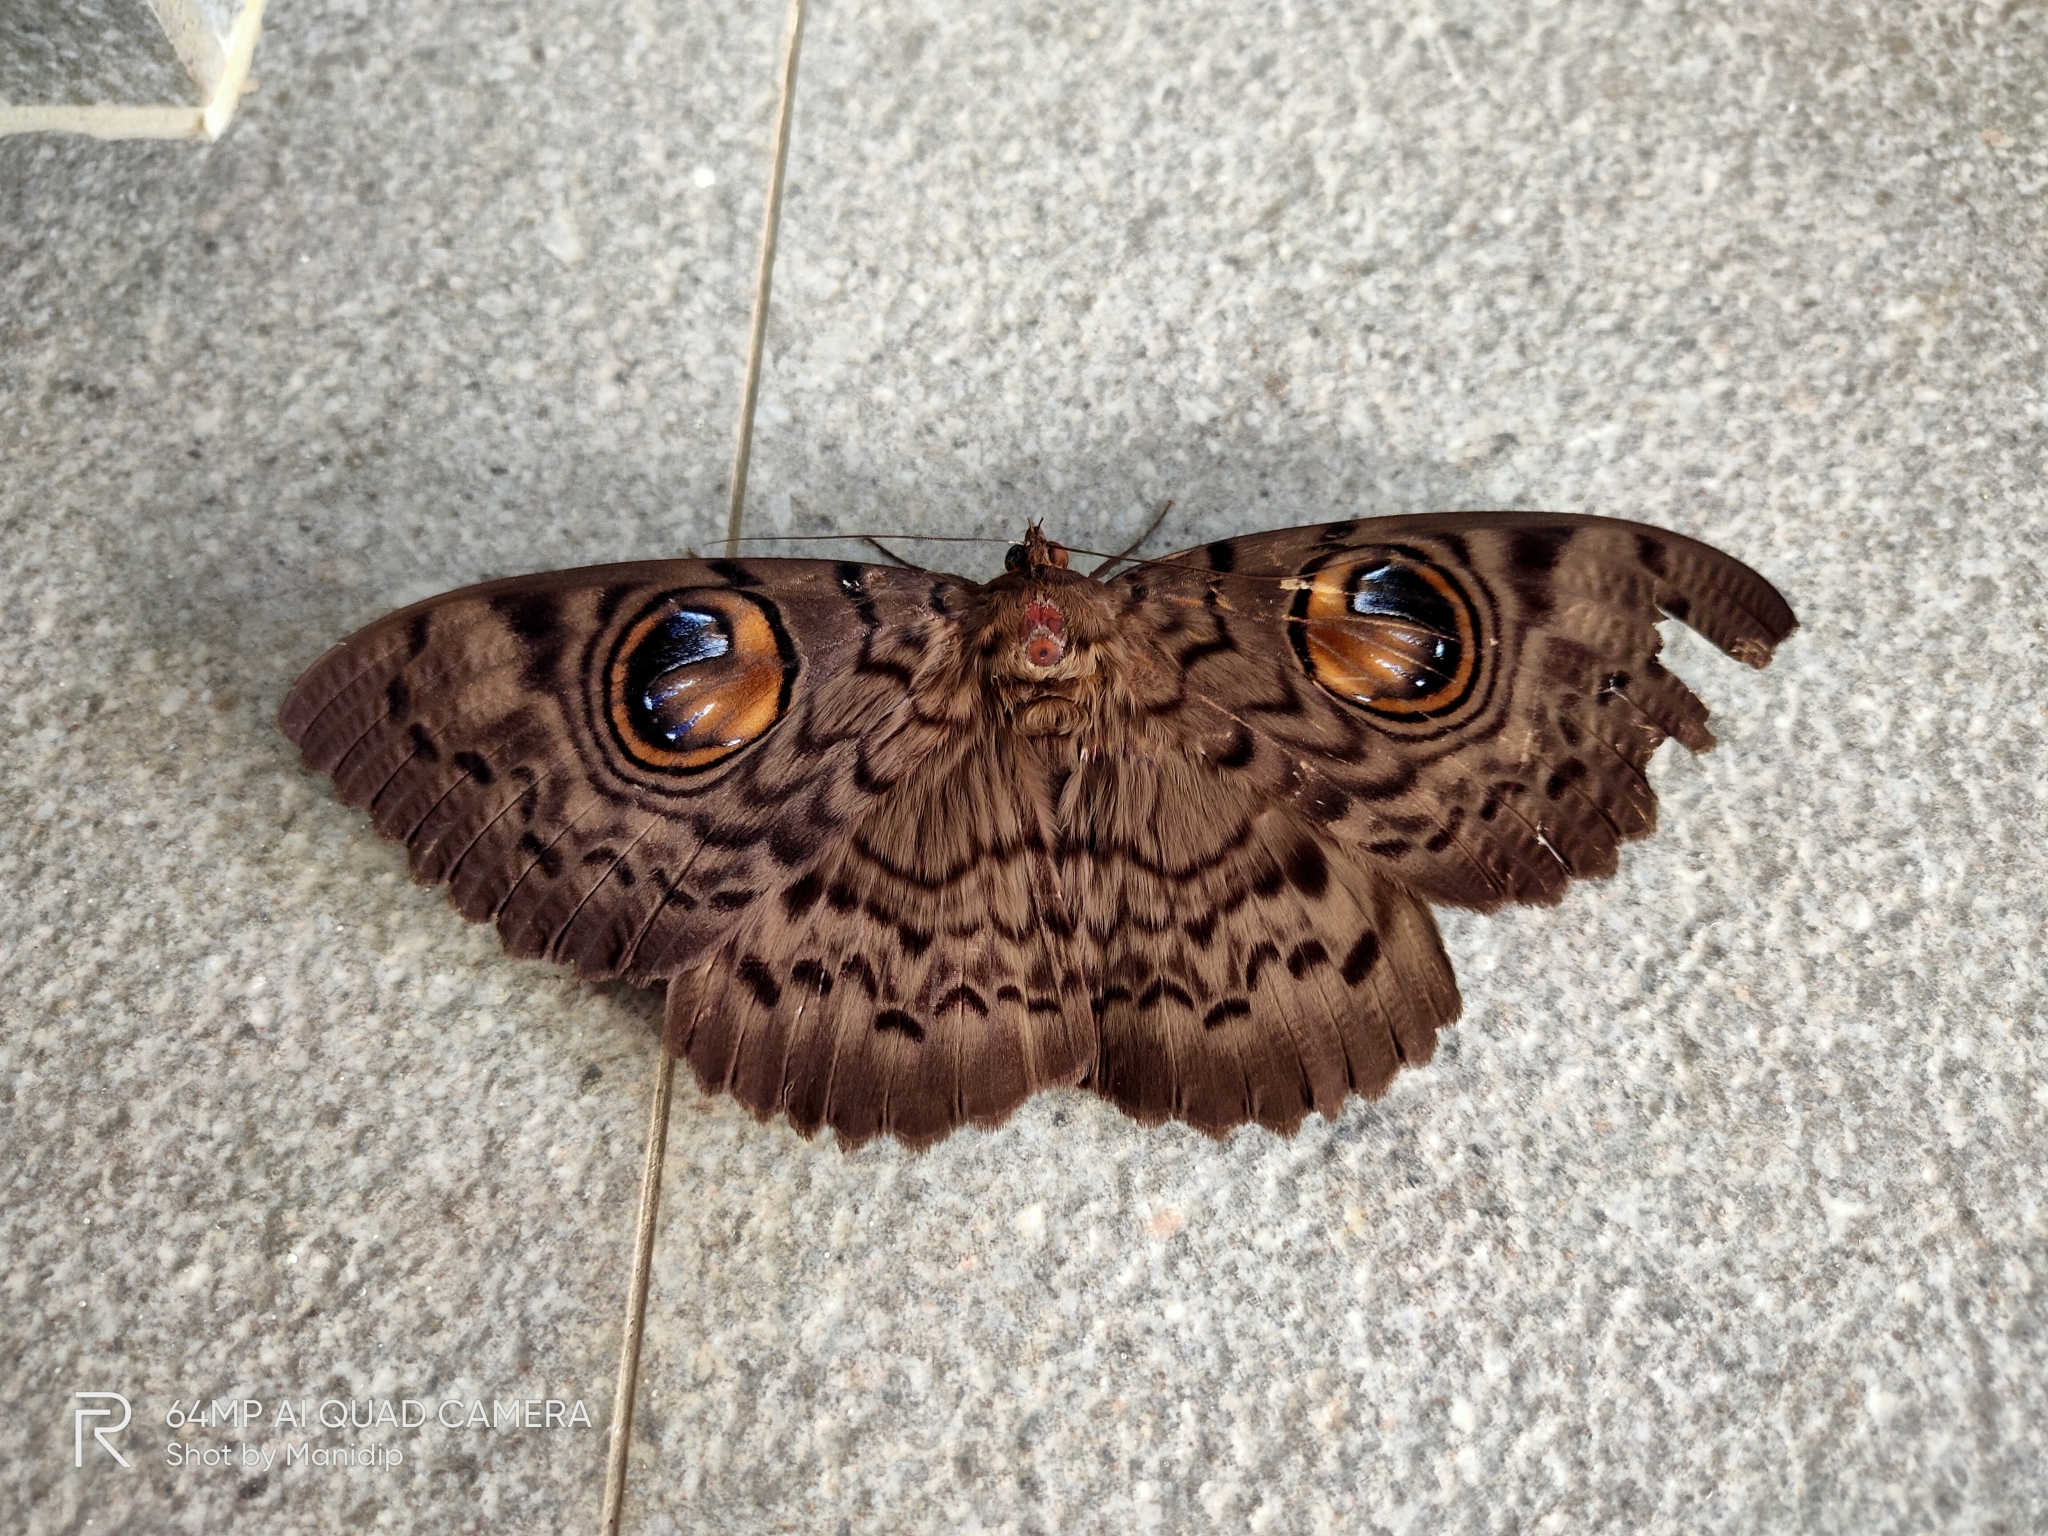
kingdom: Animalia
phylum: Arthropoda
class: Insecta
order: Lepidoptera
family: Erebidae
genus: Erebus
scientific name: Erebus macrops
